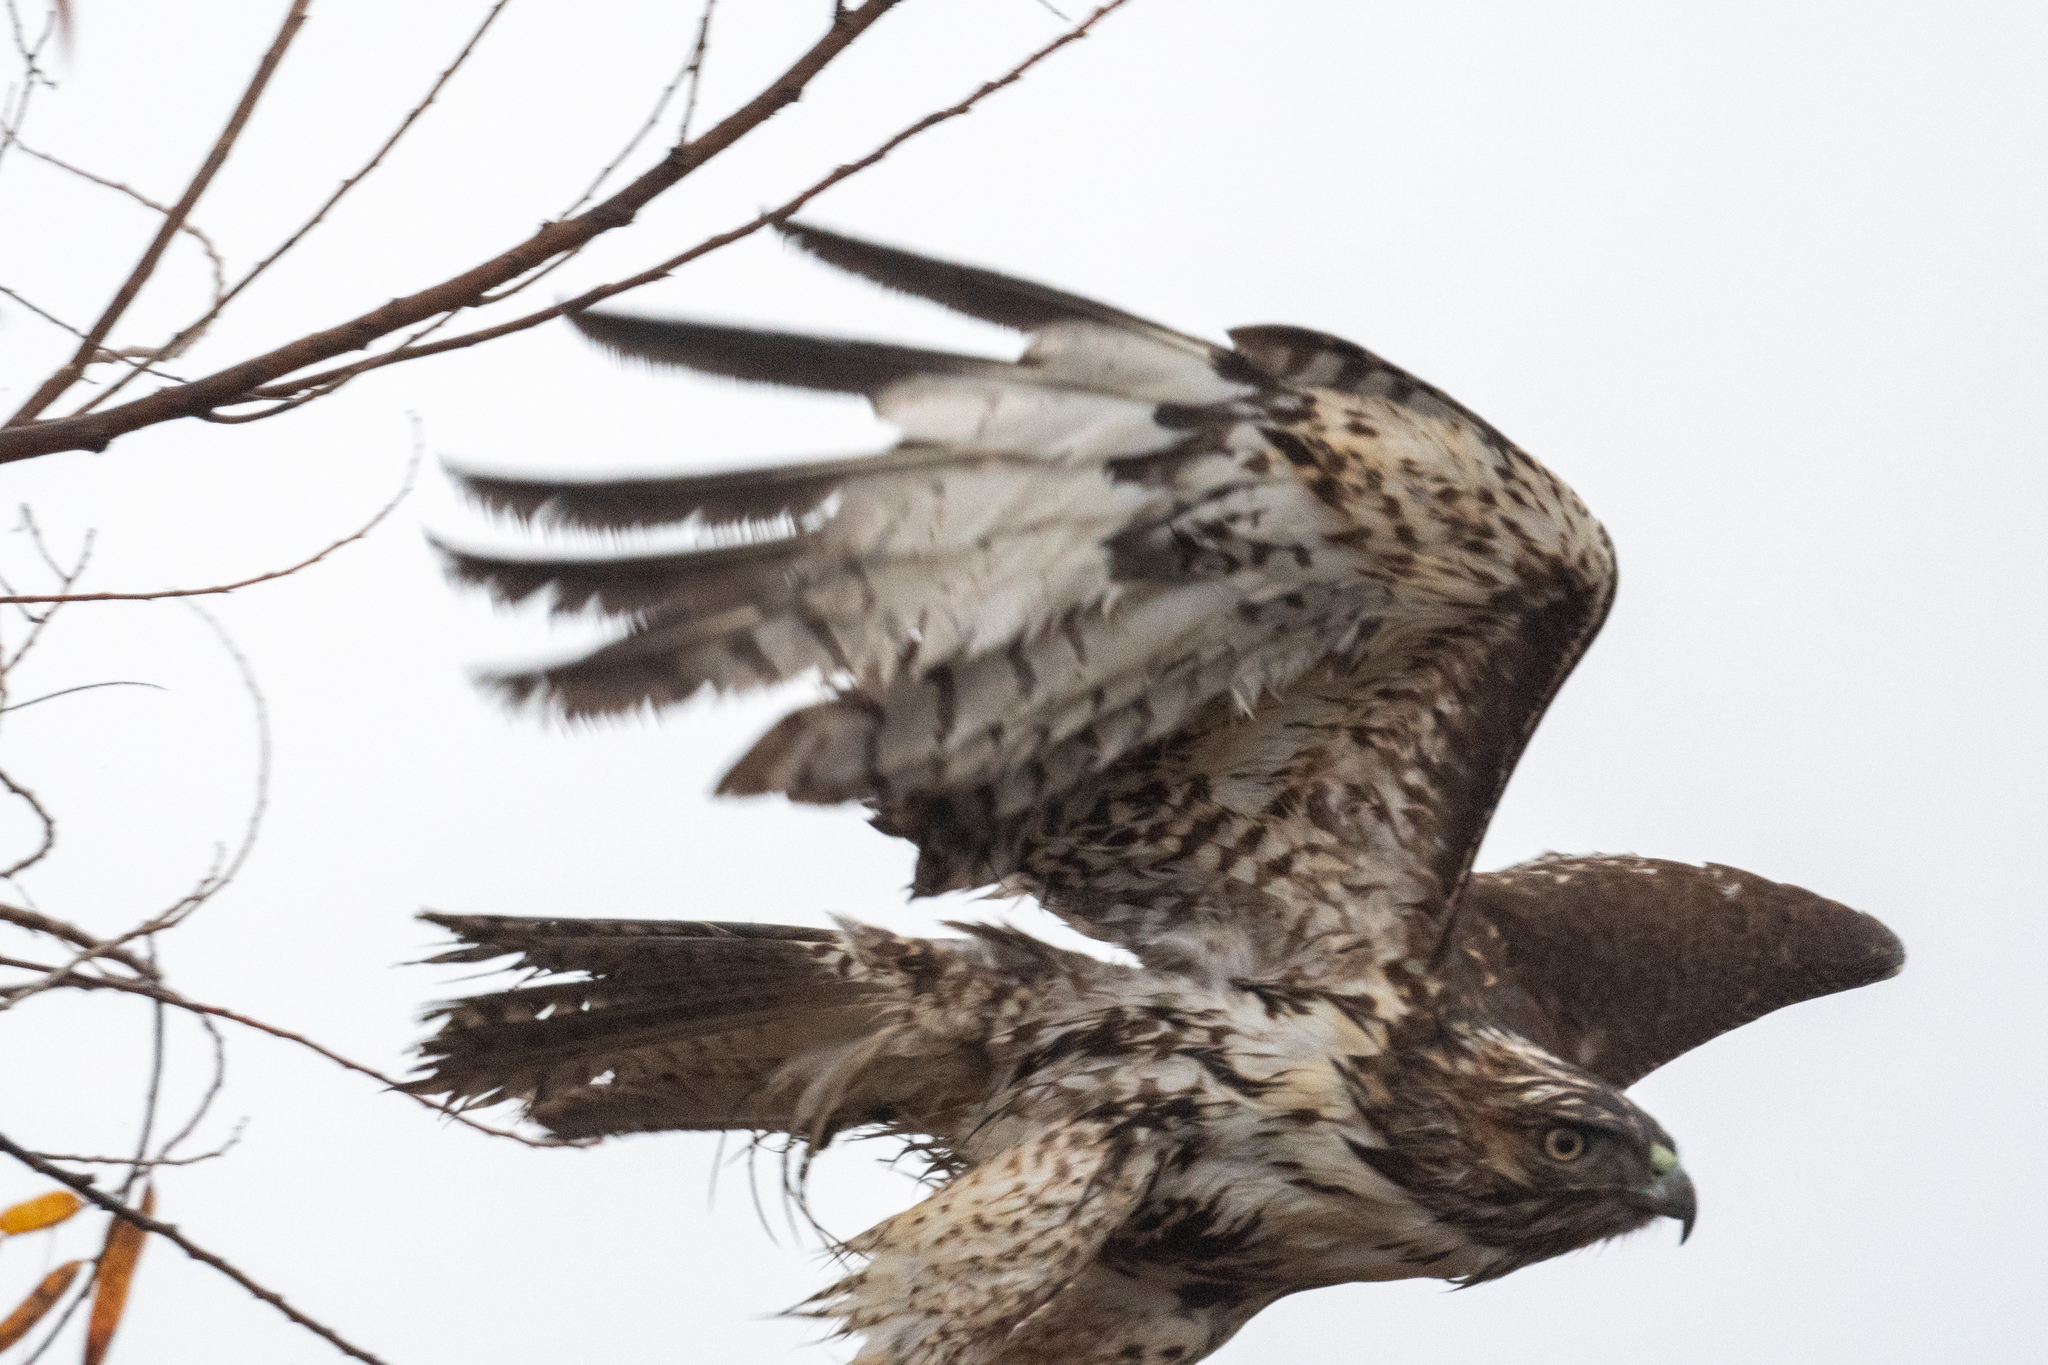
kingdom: Animalia
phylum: Chordata
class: Aves
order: Accipitriformes
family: Accipitridae
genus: Buteo
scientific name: Buteo jamaicensis
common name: Red-tailed hawk
